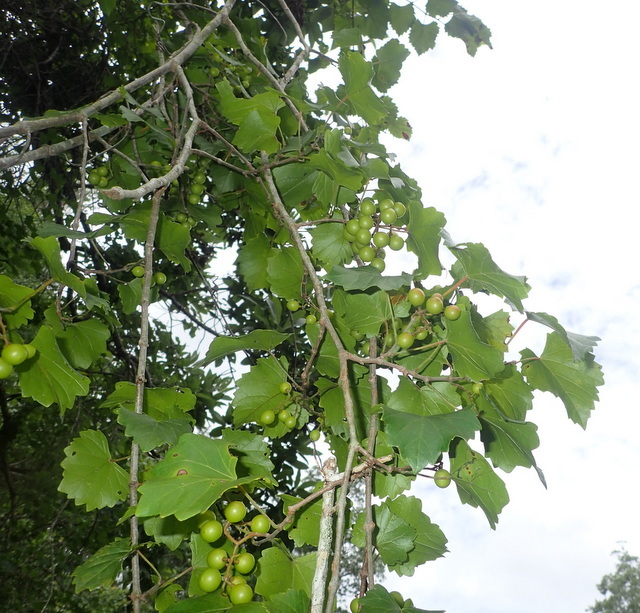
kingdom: Plantae
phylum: Tracheophyta
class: Magnoliopsida
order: Vitales
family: Vitaceae
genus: Vitis
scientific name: Vitis rotundifolia
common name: Muscadine grape
